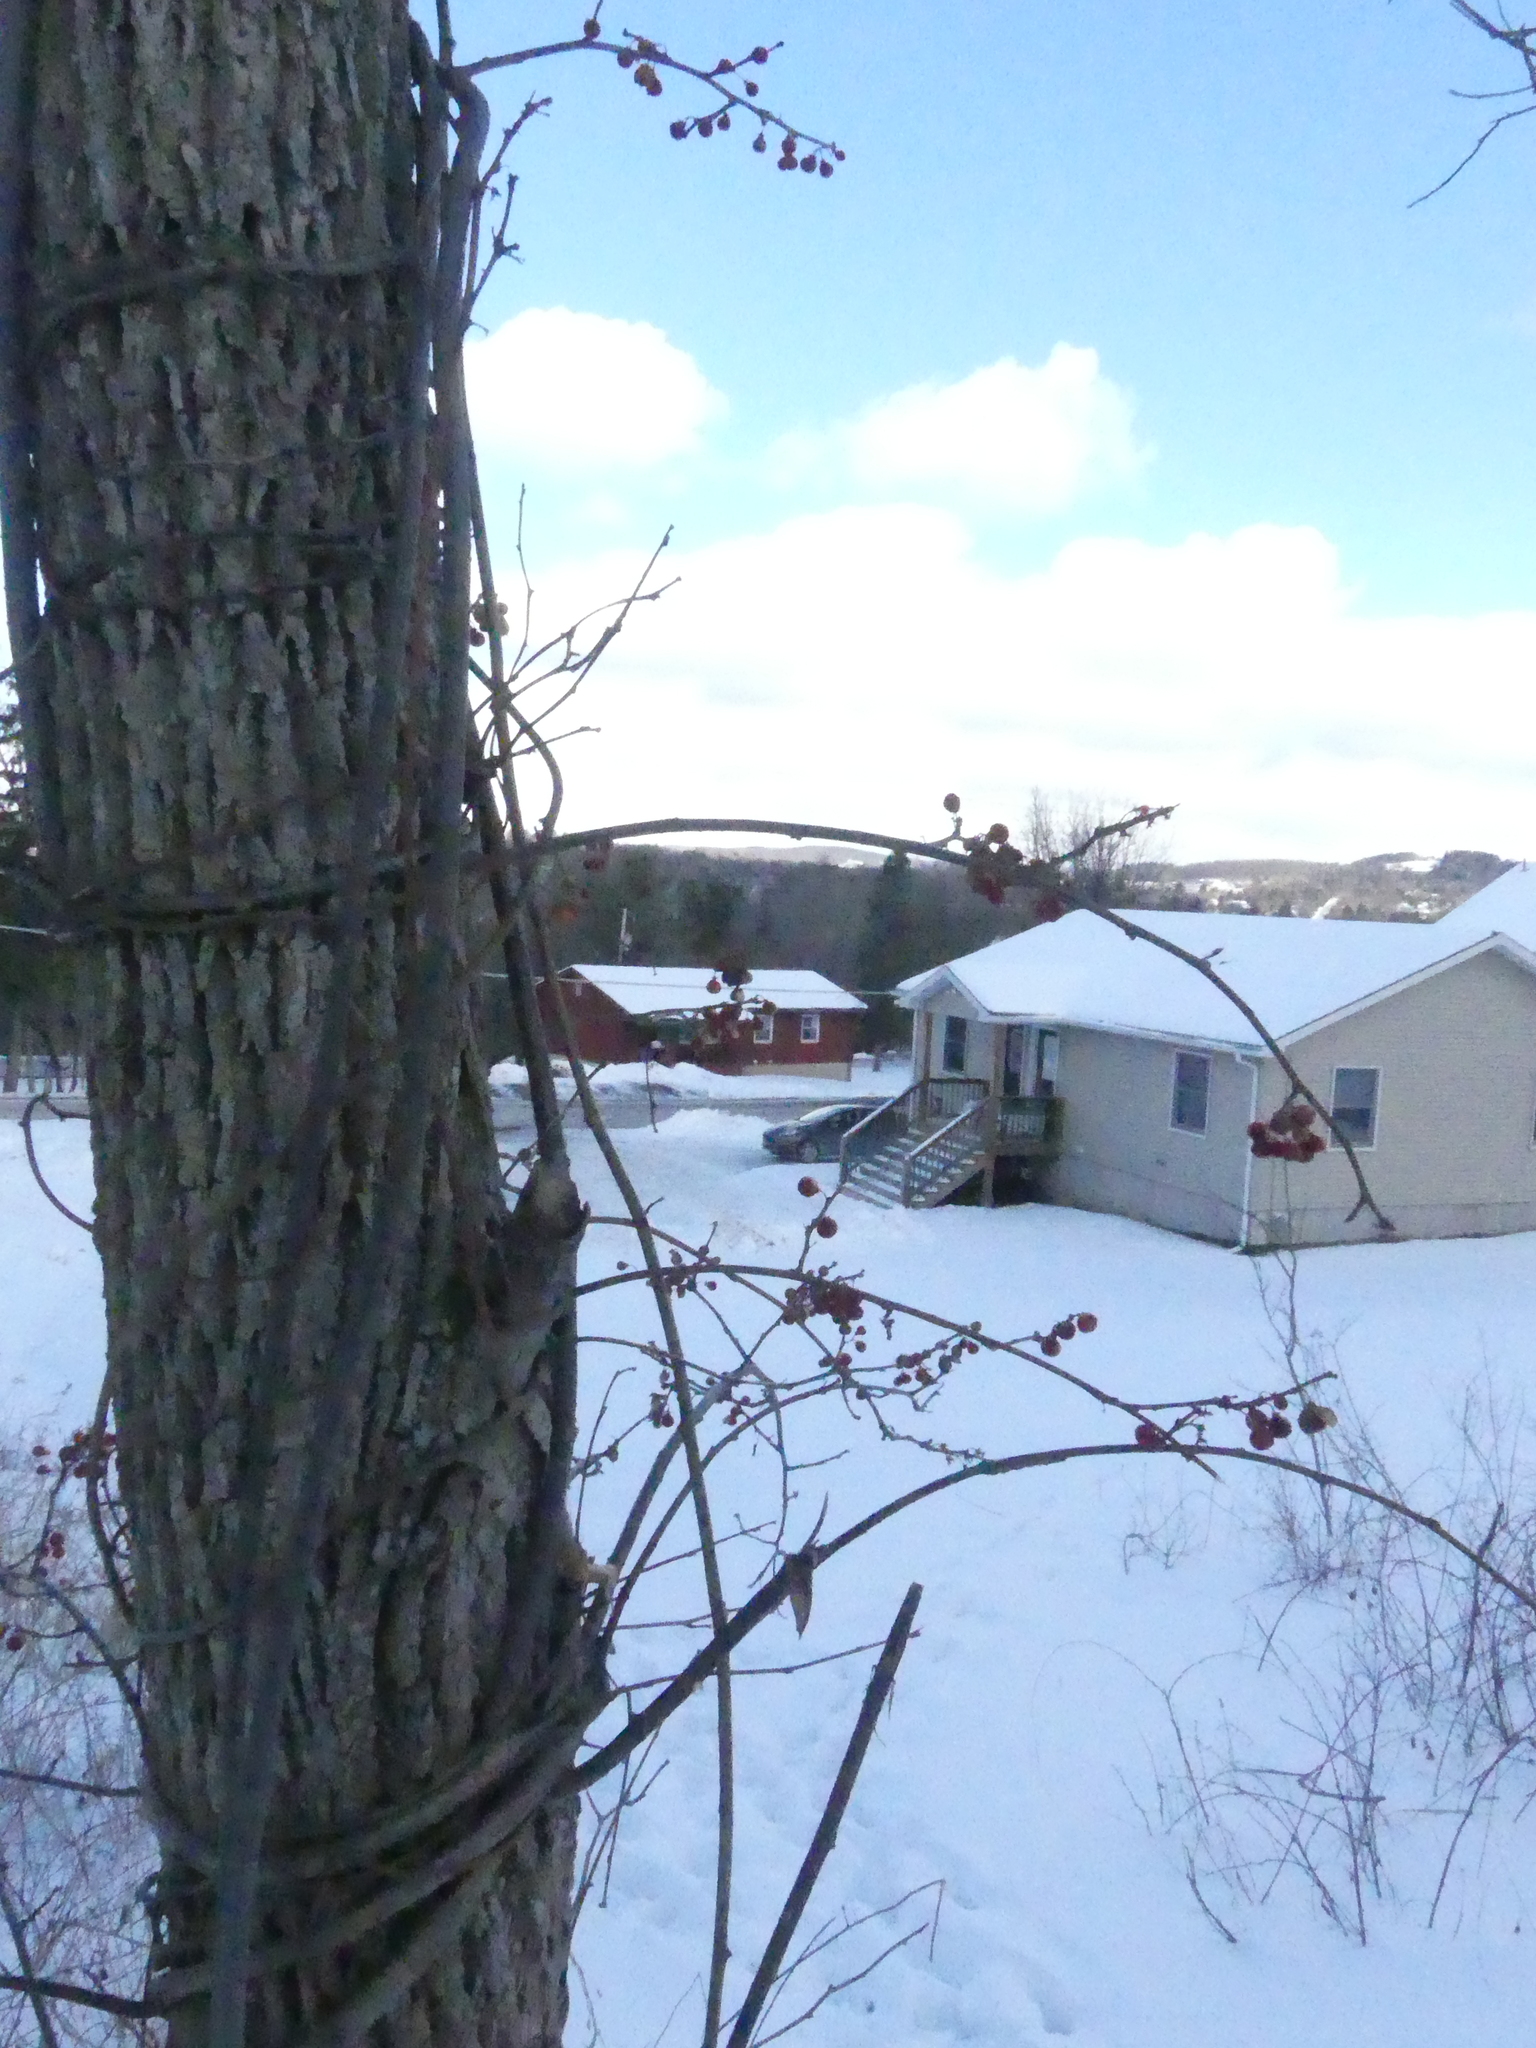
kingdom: Plantae
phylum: Tracheophyta
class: Magnoliopsida
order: Celastrales
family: Celastraceae
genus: Celastrus
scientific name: Celastrus orbiculatus
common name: Oriental bittersweet
